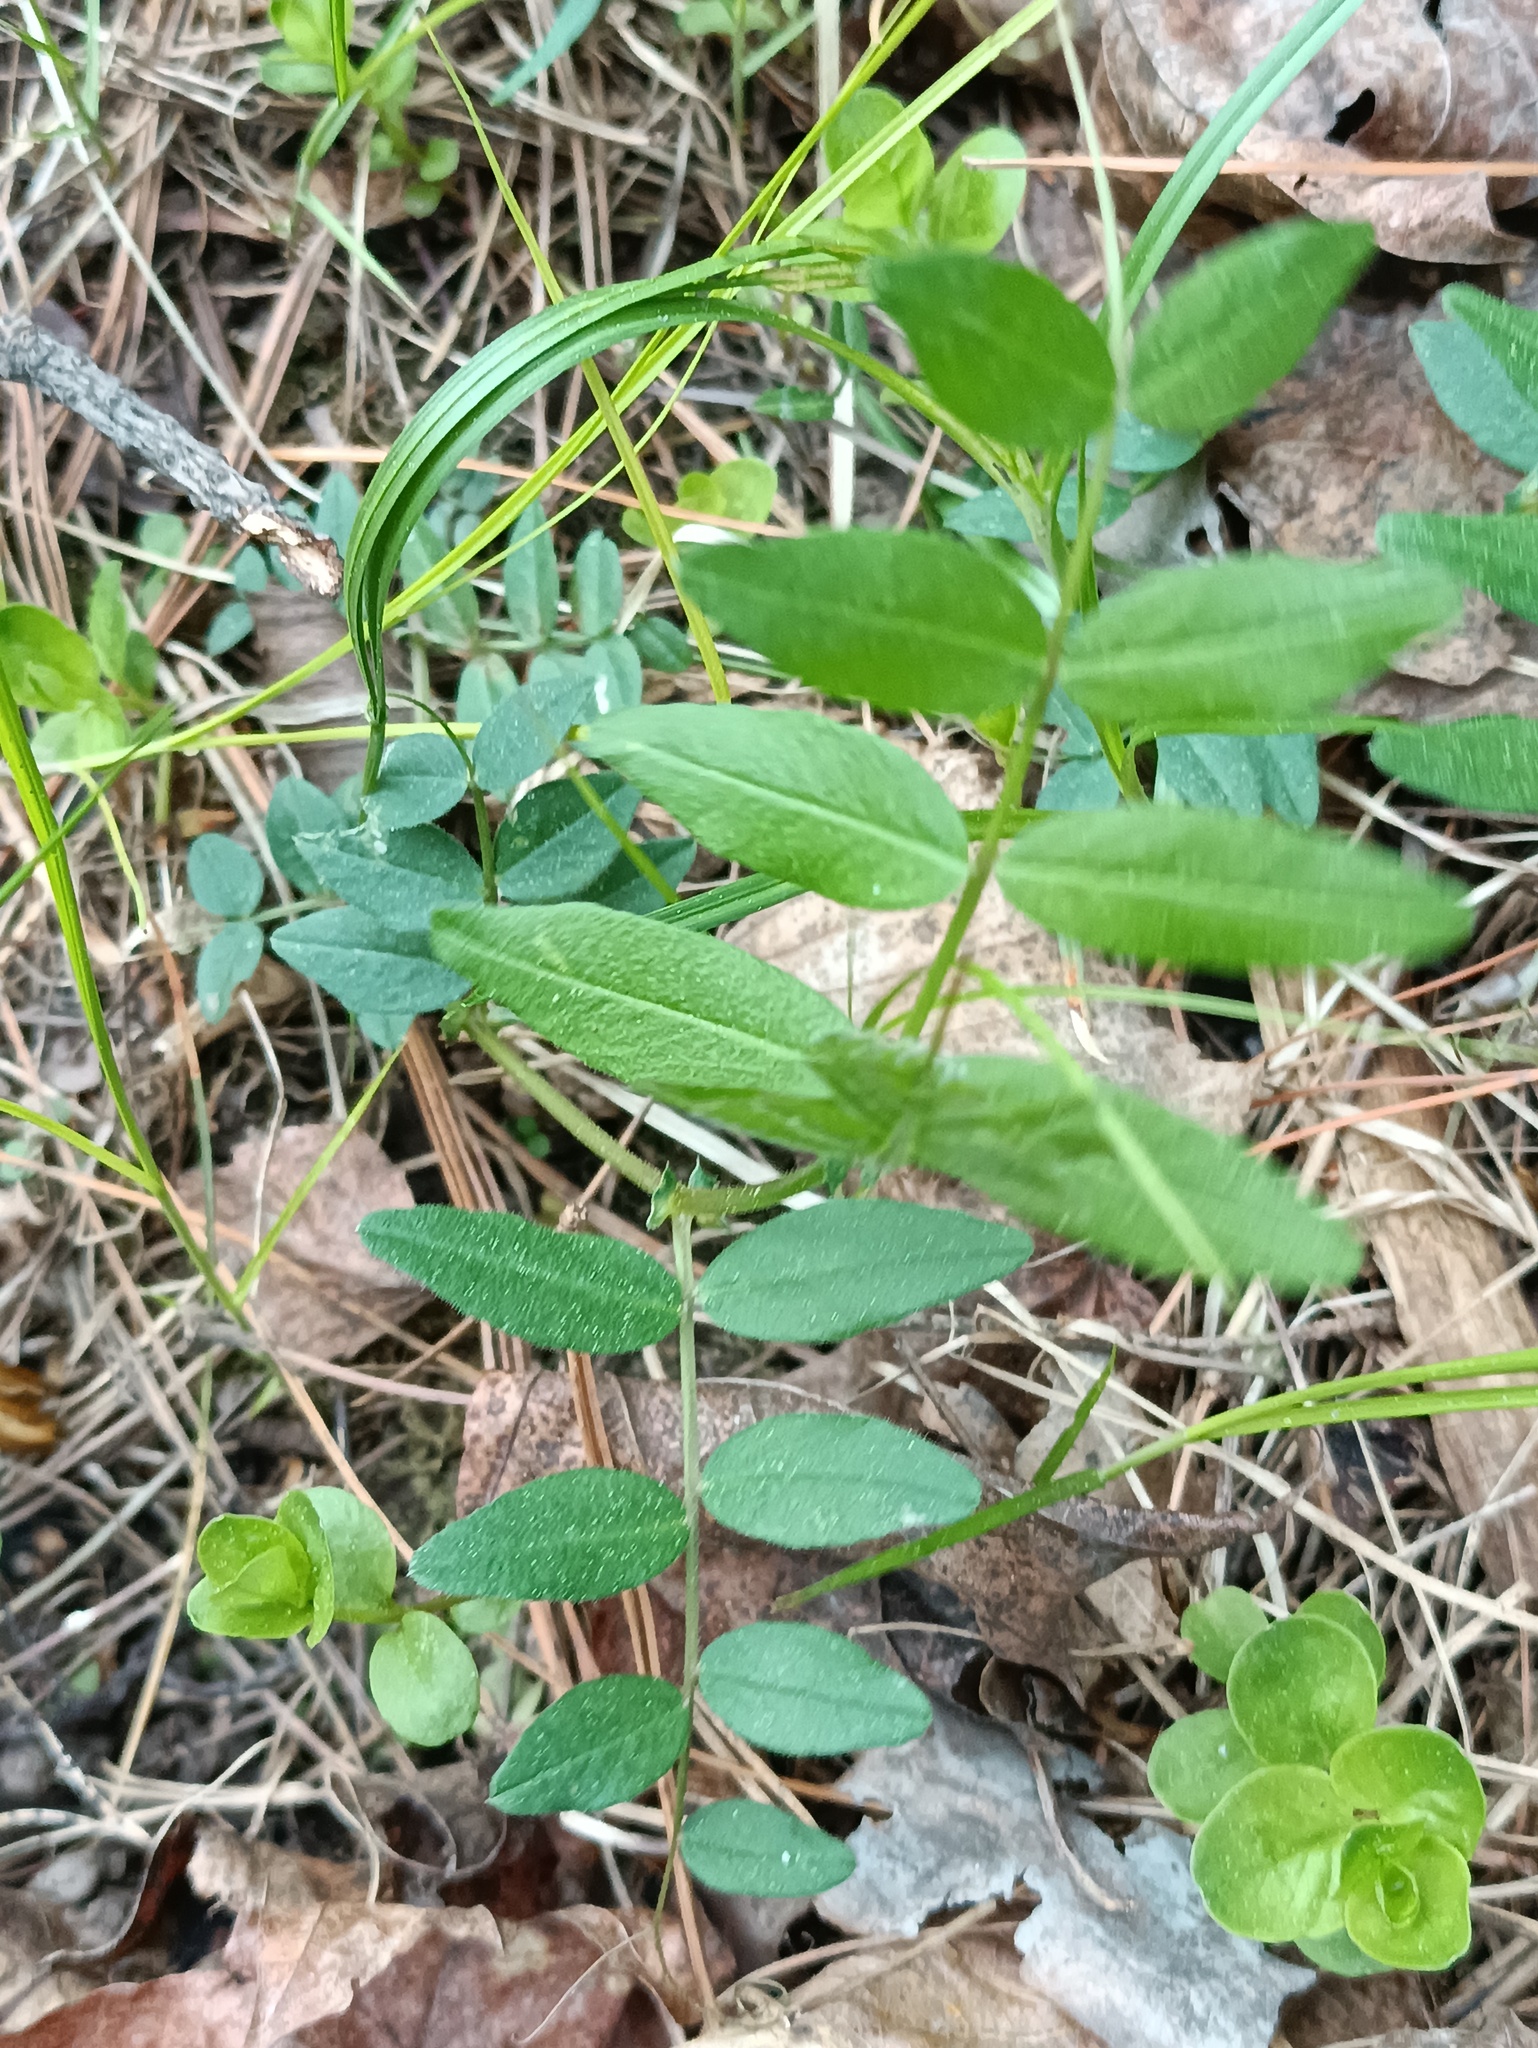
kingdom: Plantae
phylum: Tracheophyta
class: Magnoliopsida
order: Fabales
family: Fabaceae
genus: Vicia
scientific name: Vicia sepium
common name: Bush vetch
